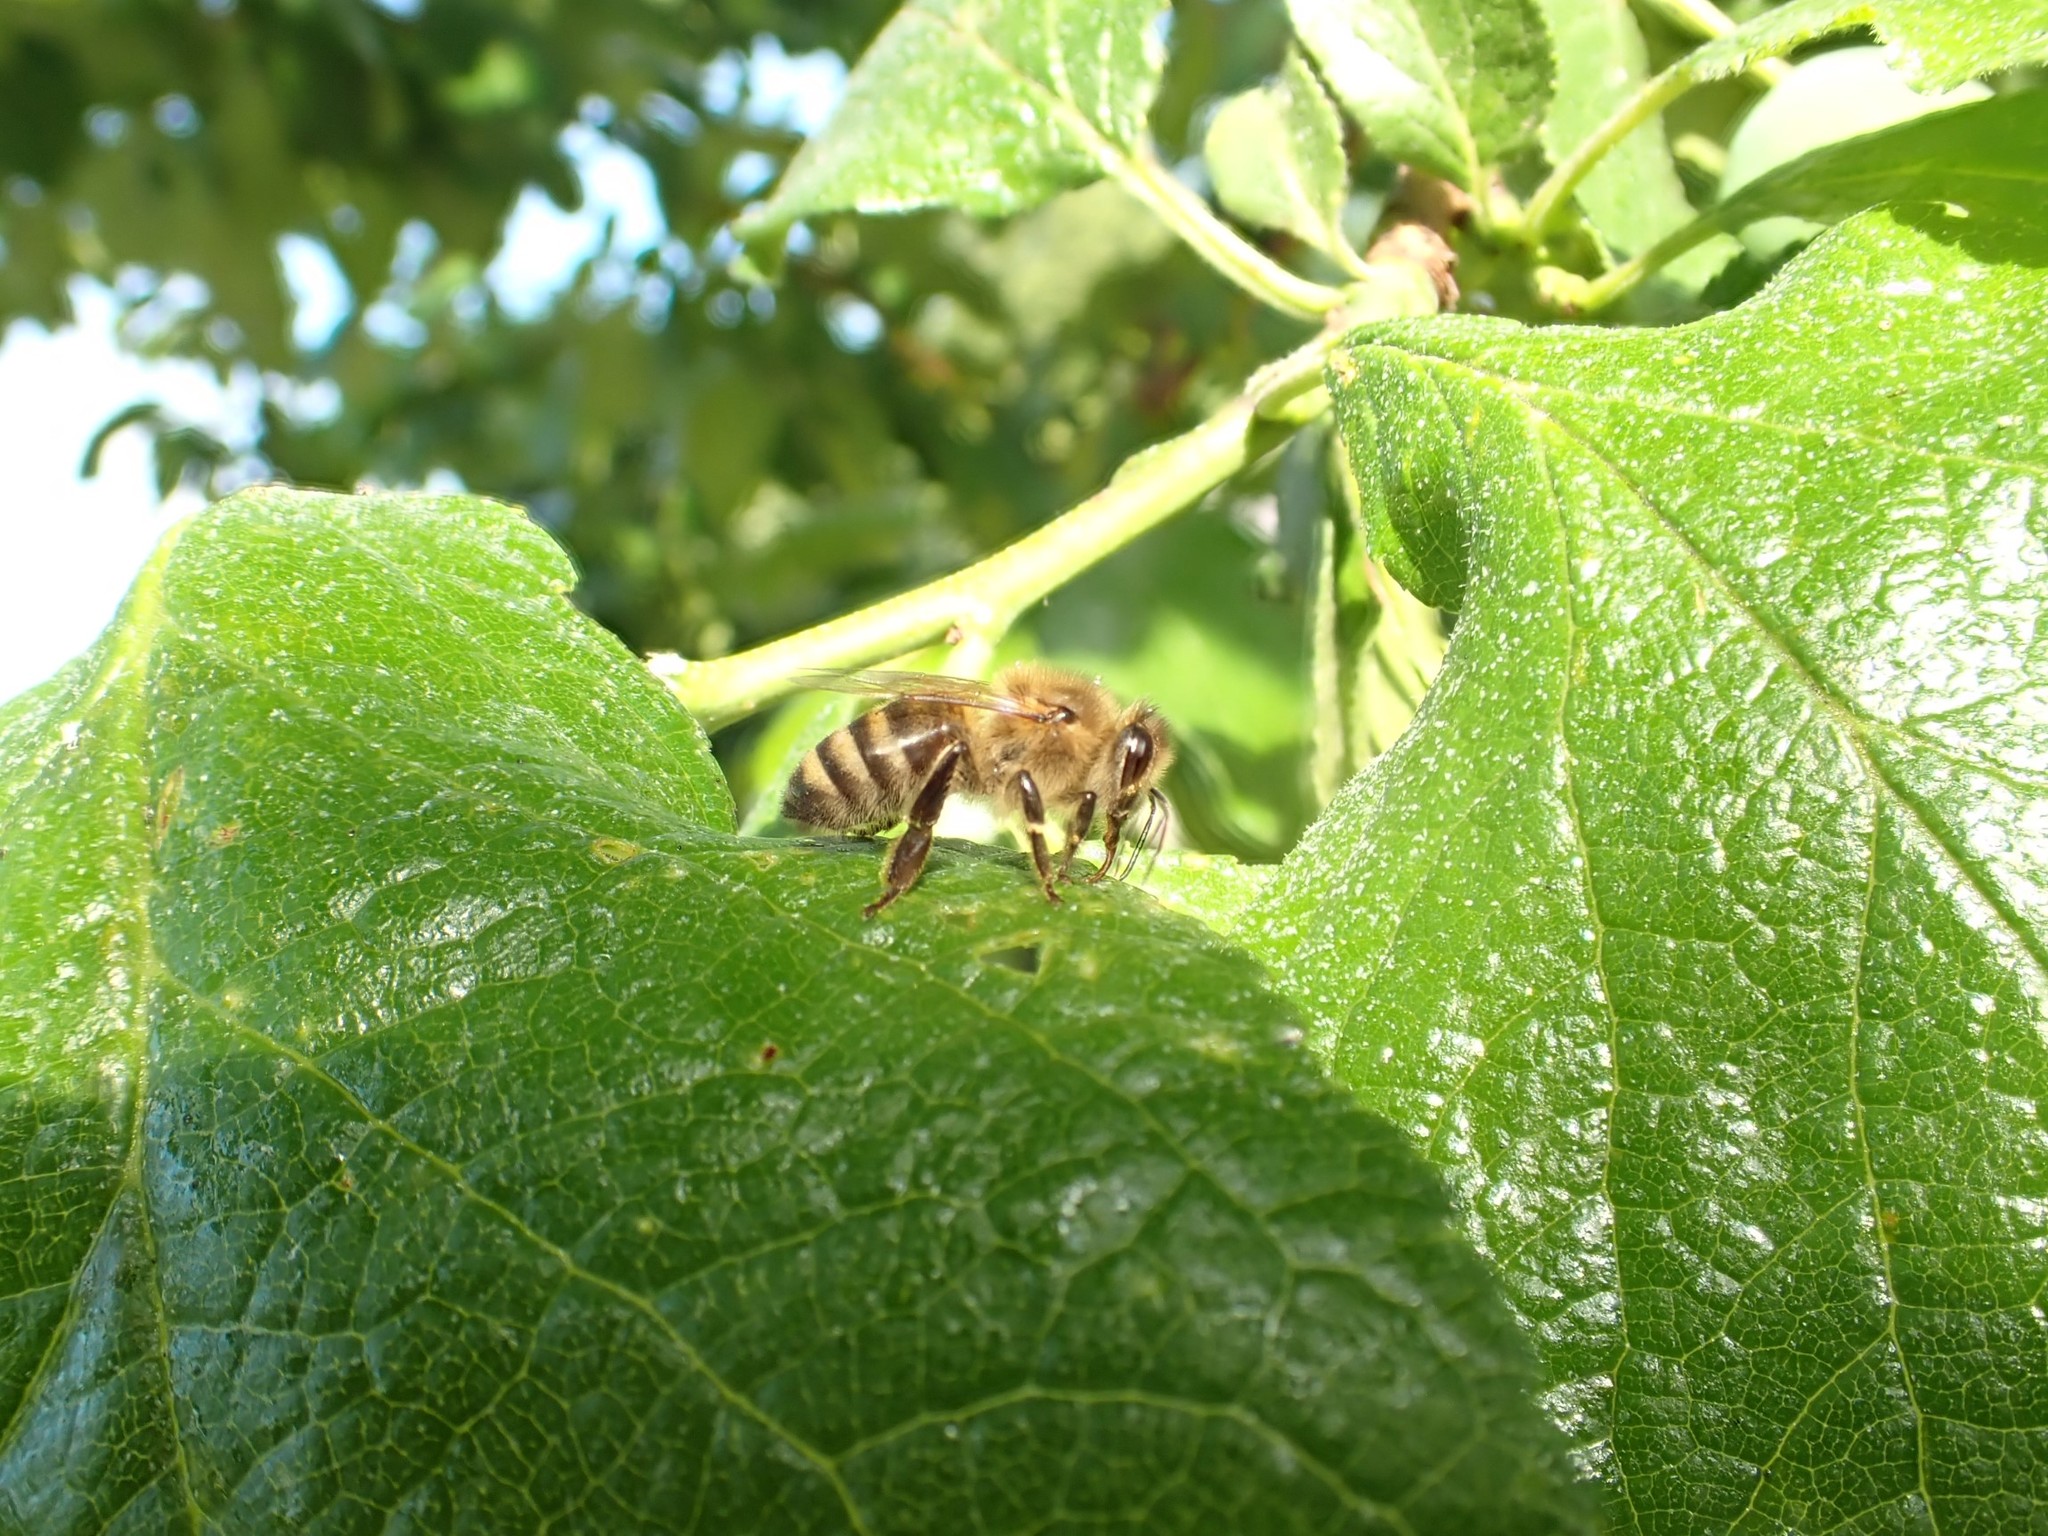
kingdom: Animalia
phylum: Arthropoda
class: Insecta
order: Hymenoptera
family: Apidae
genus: Apis
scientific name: Apis mellifera
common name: Honey bee
